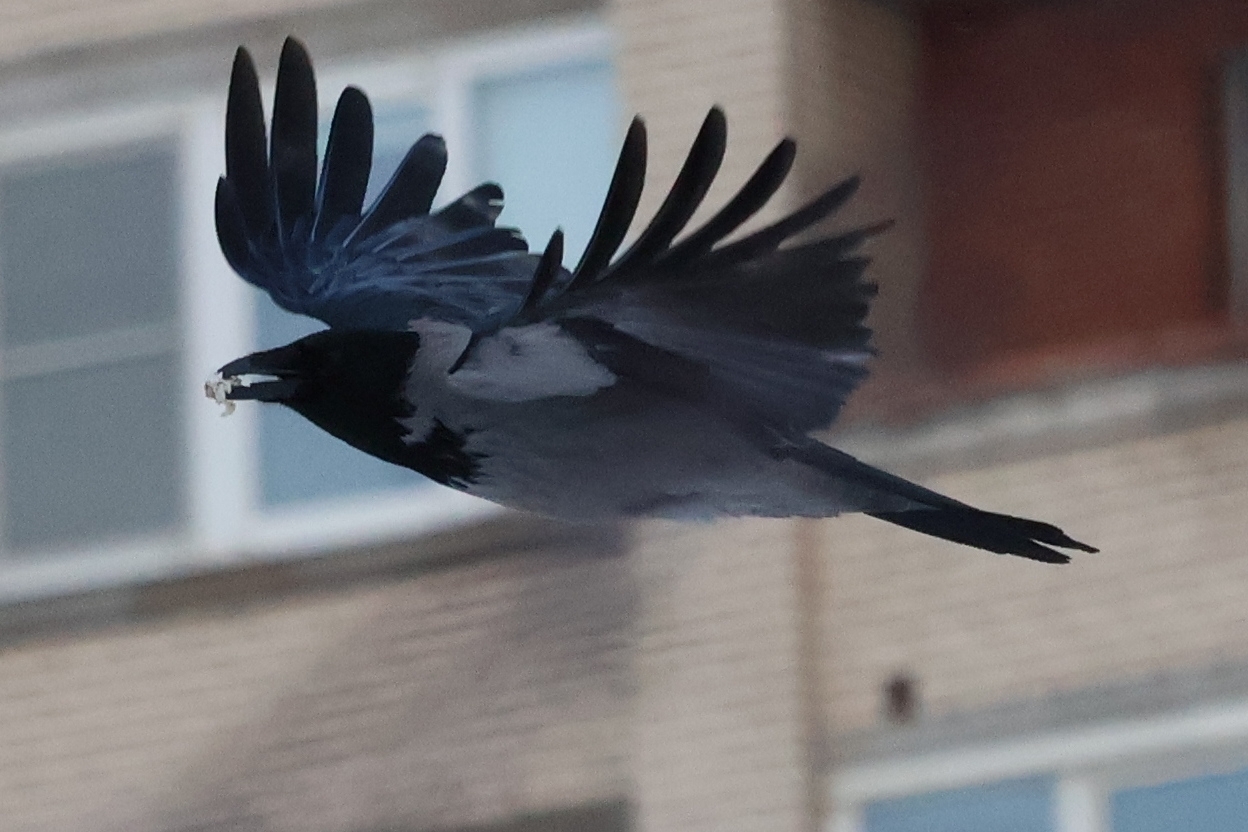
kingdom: Animalia
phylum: Chordata
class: Aves
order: Passeriformes
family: Corvidae
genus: Corvus
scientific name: Corvus cornix
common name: Hooded crow
